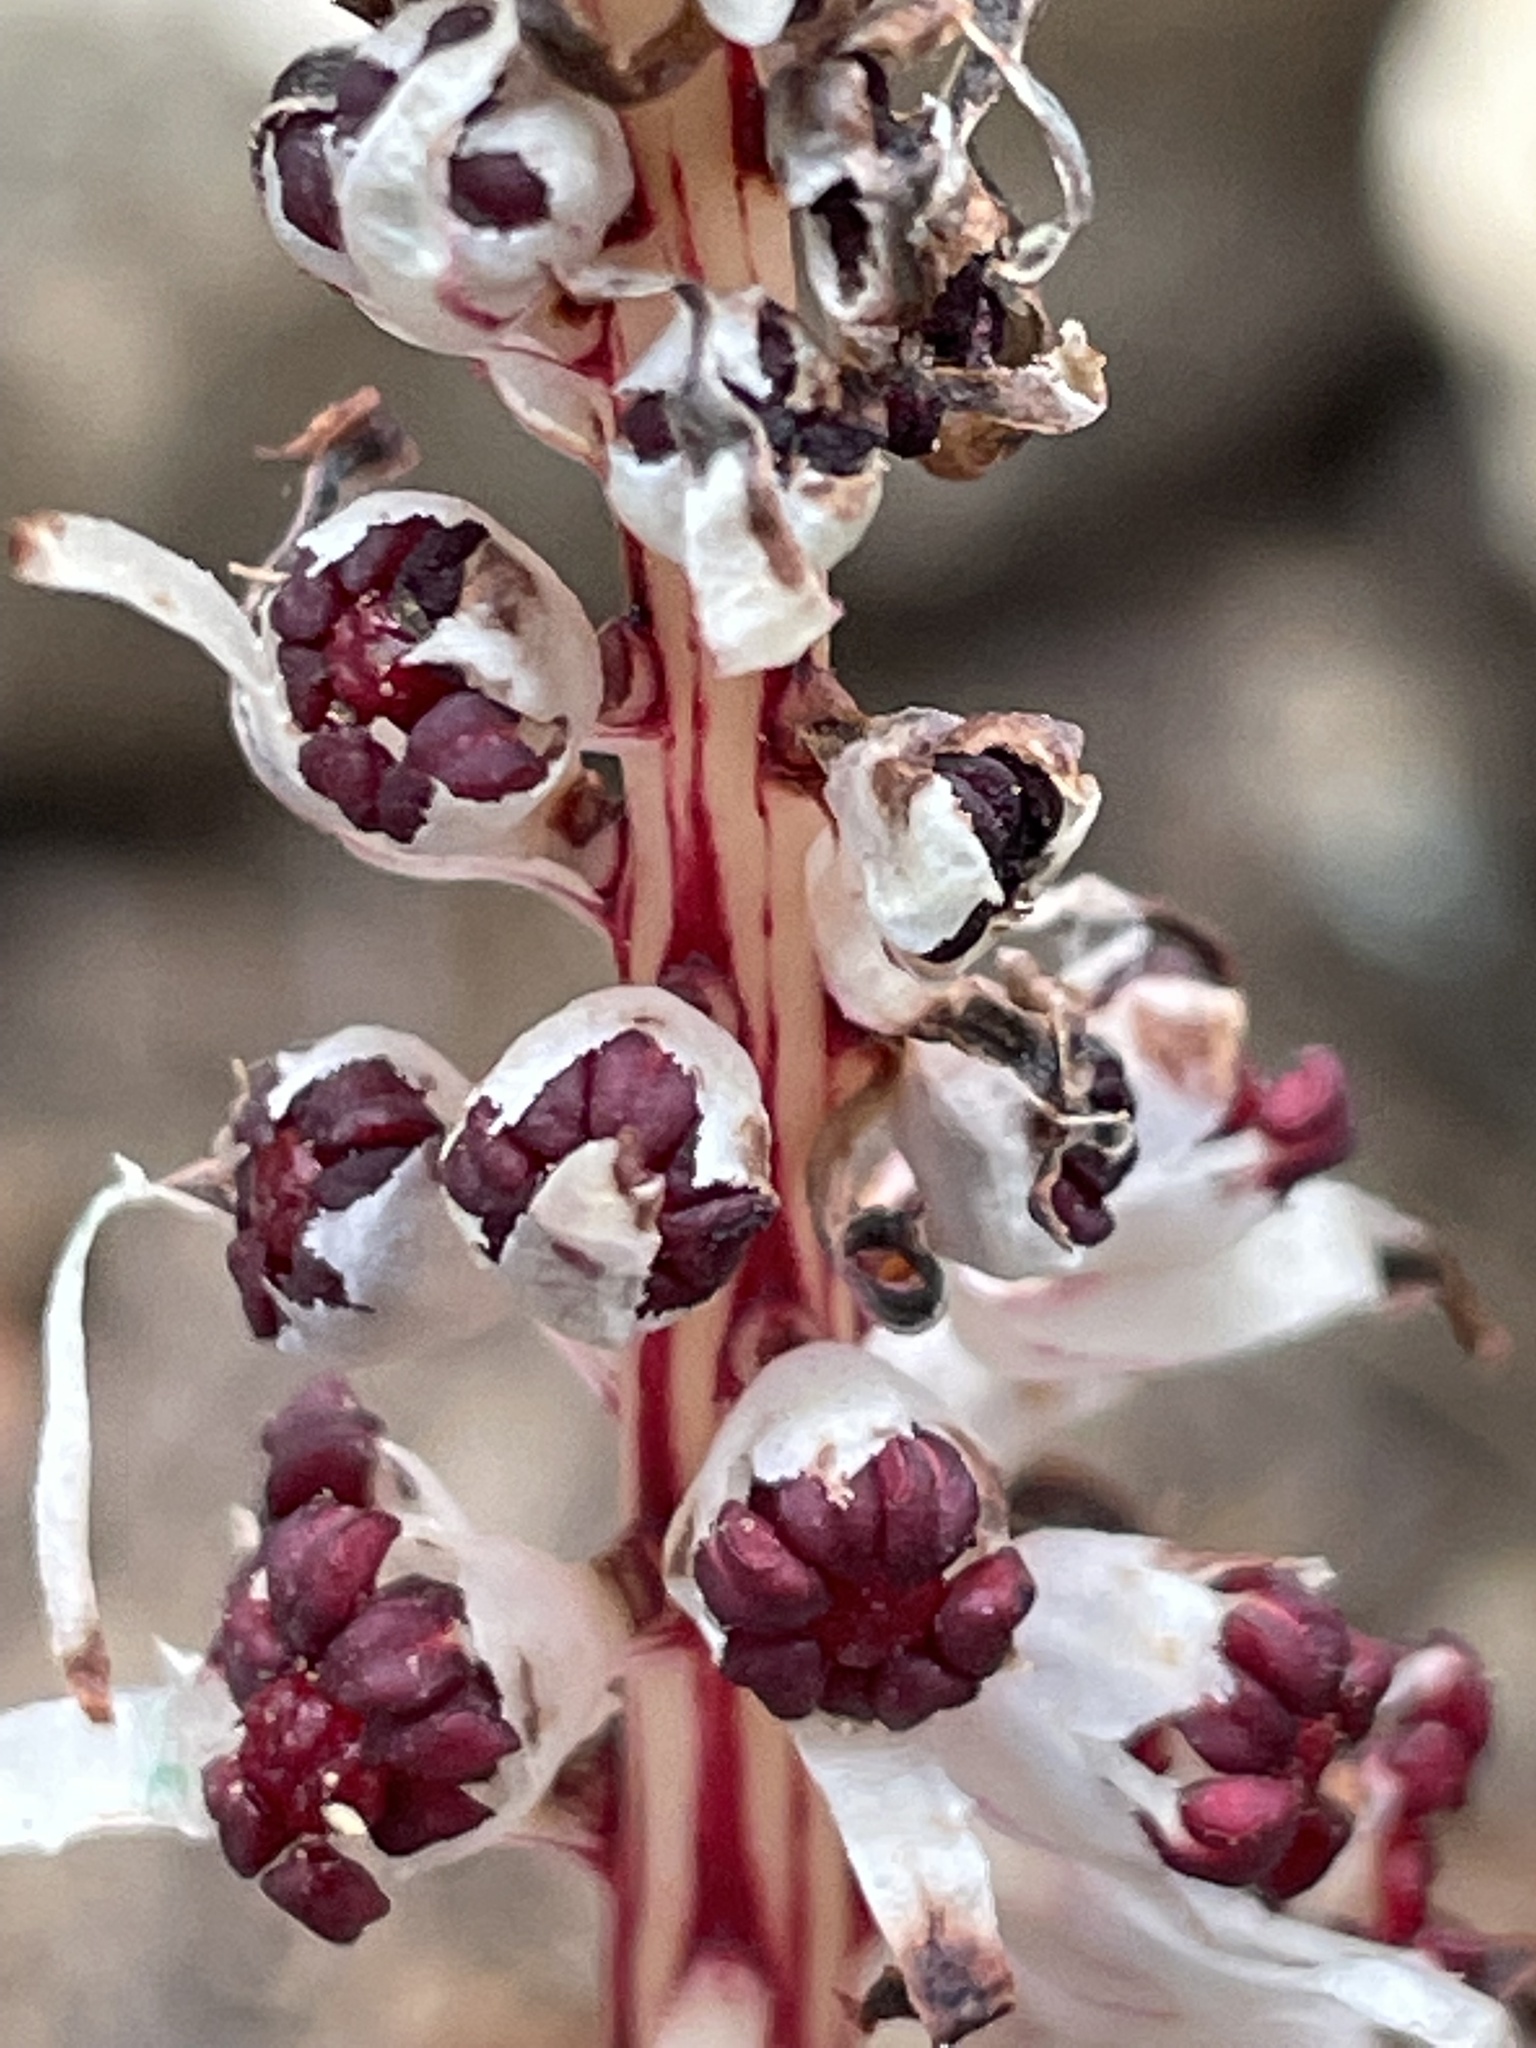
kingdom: Plantae
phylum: Tracheophyta
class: Magnoliopsida
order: Ericales
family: Ericaceae
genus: Allotropa
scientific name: Allotropa virgata
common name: Candy-striped allotropa
